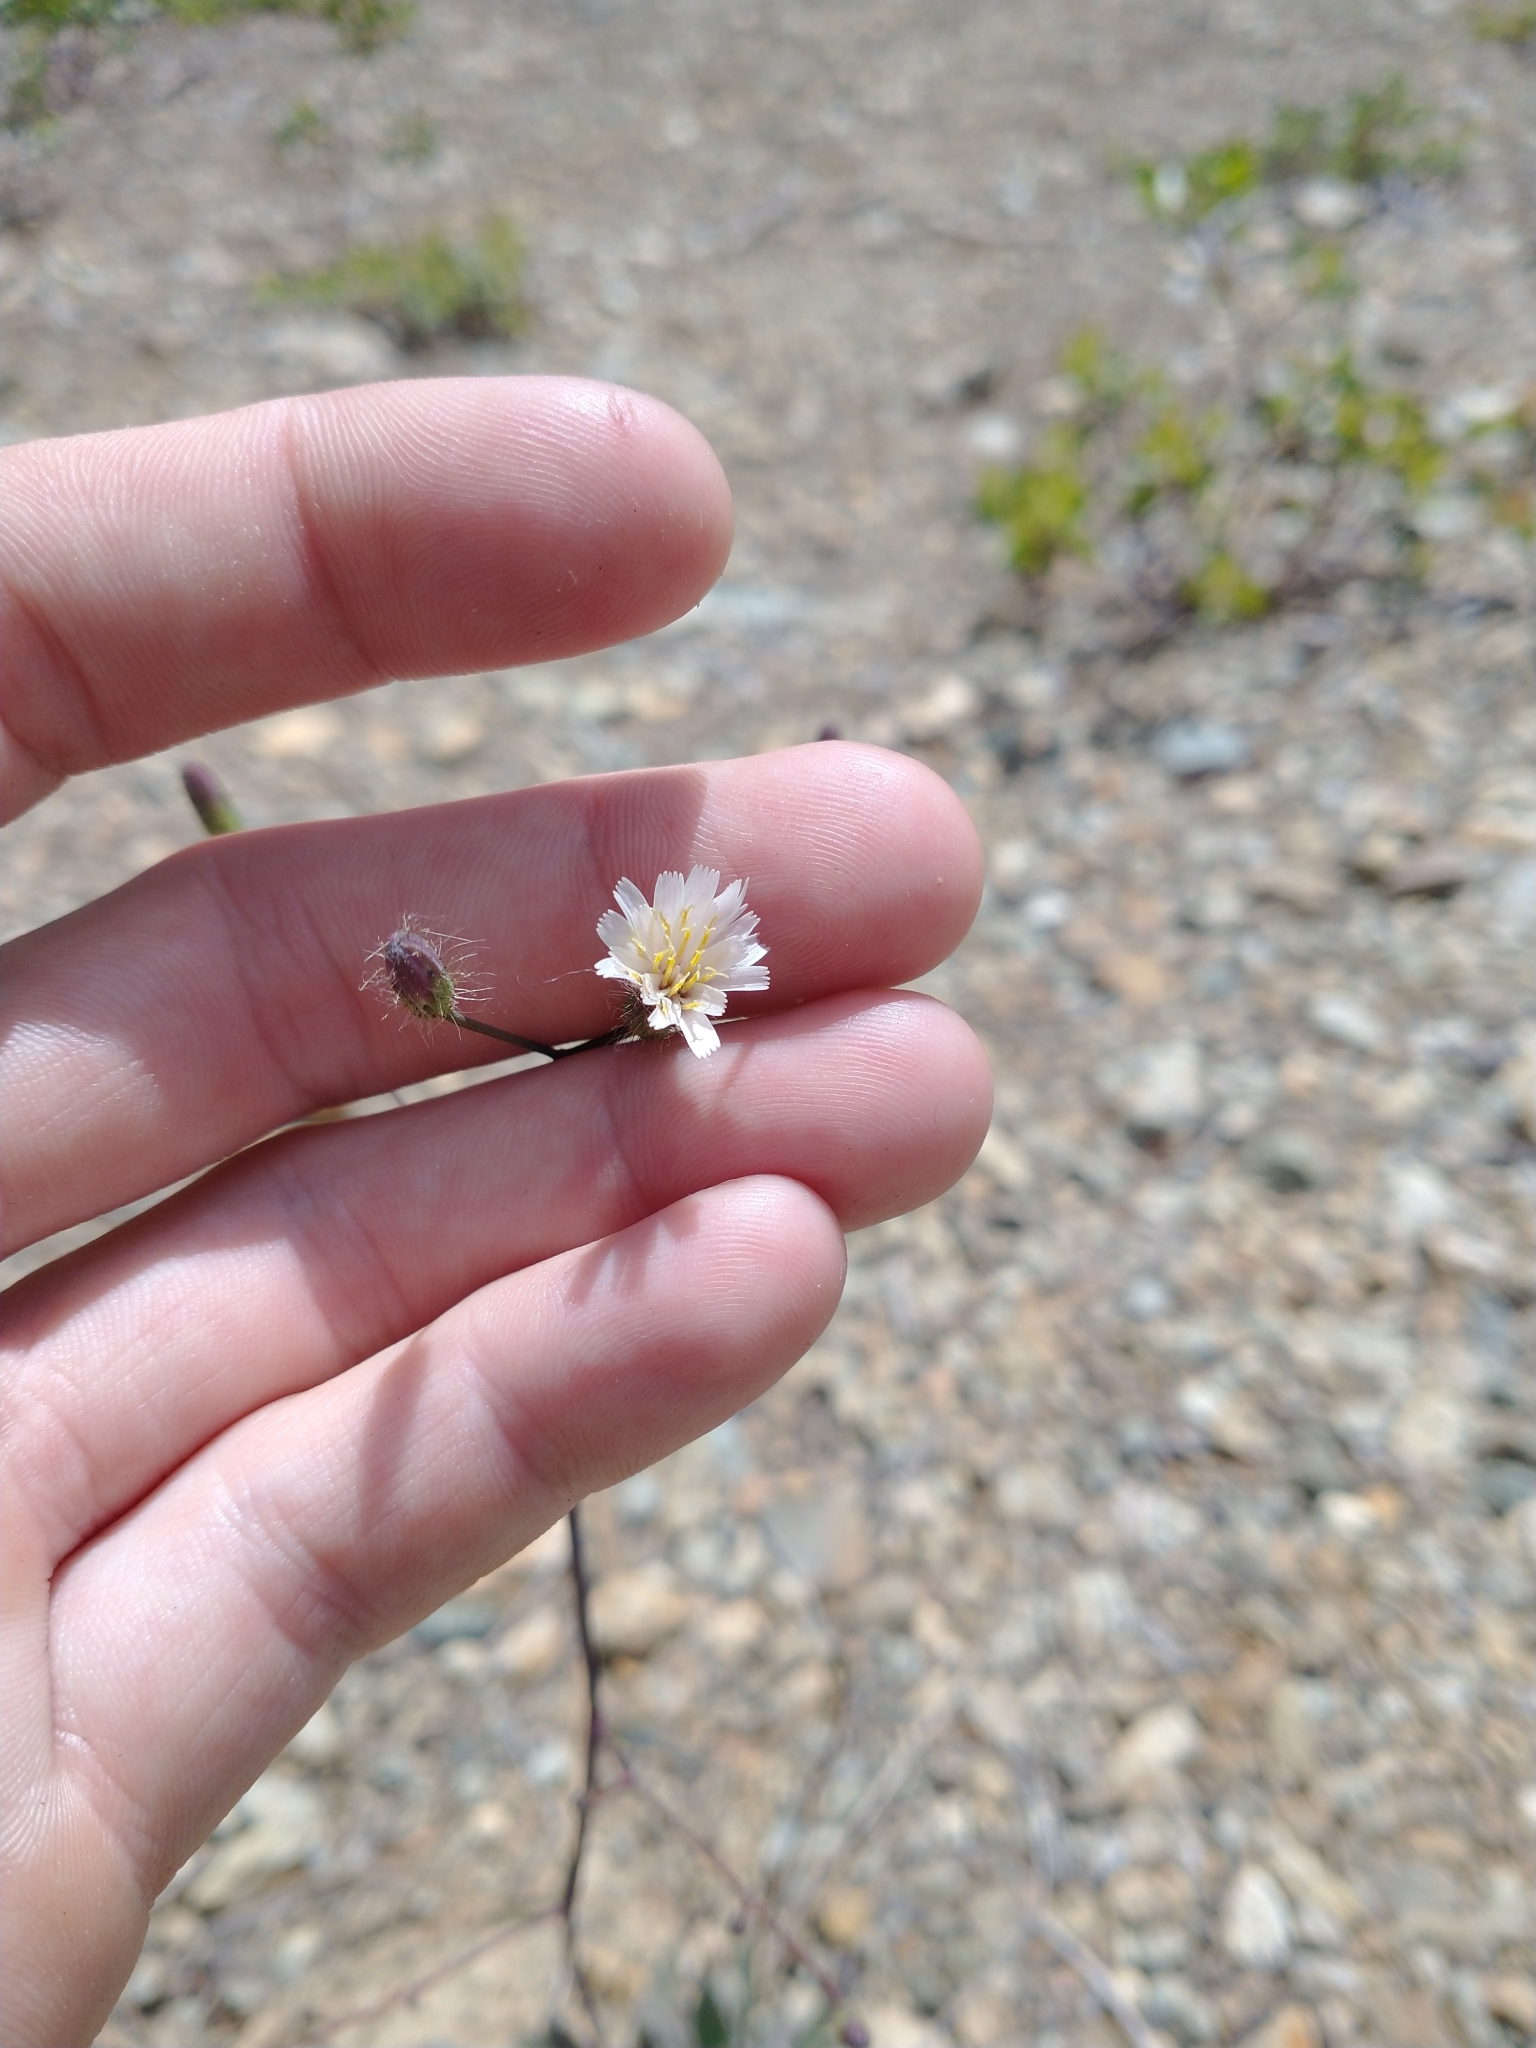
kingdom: Plantae
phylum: Tracheophyta
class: Magnoliopsida
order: Asterales
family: Asteraceae
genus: Hieracium
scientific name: Hieracium albiflorum
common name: White hawkweed
